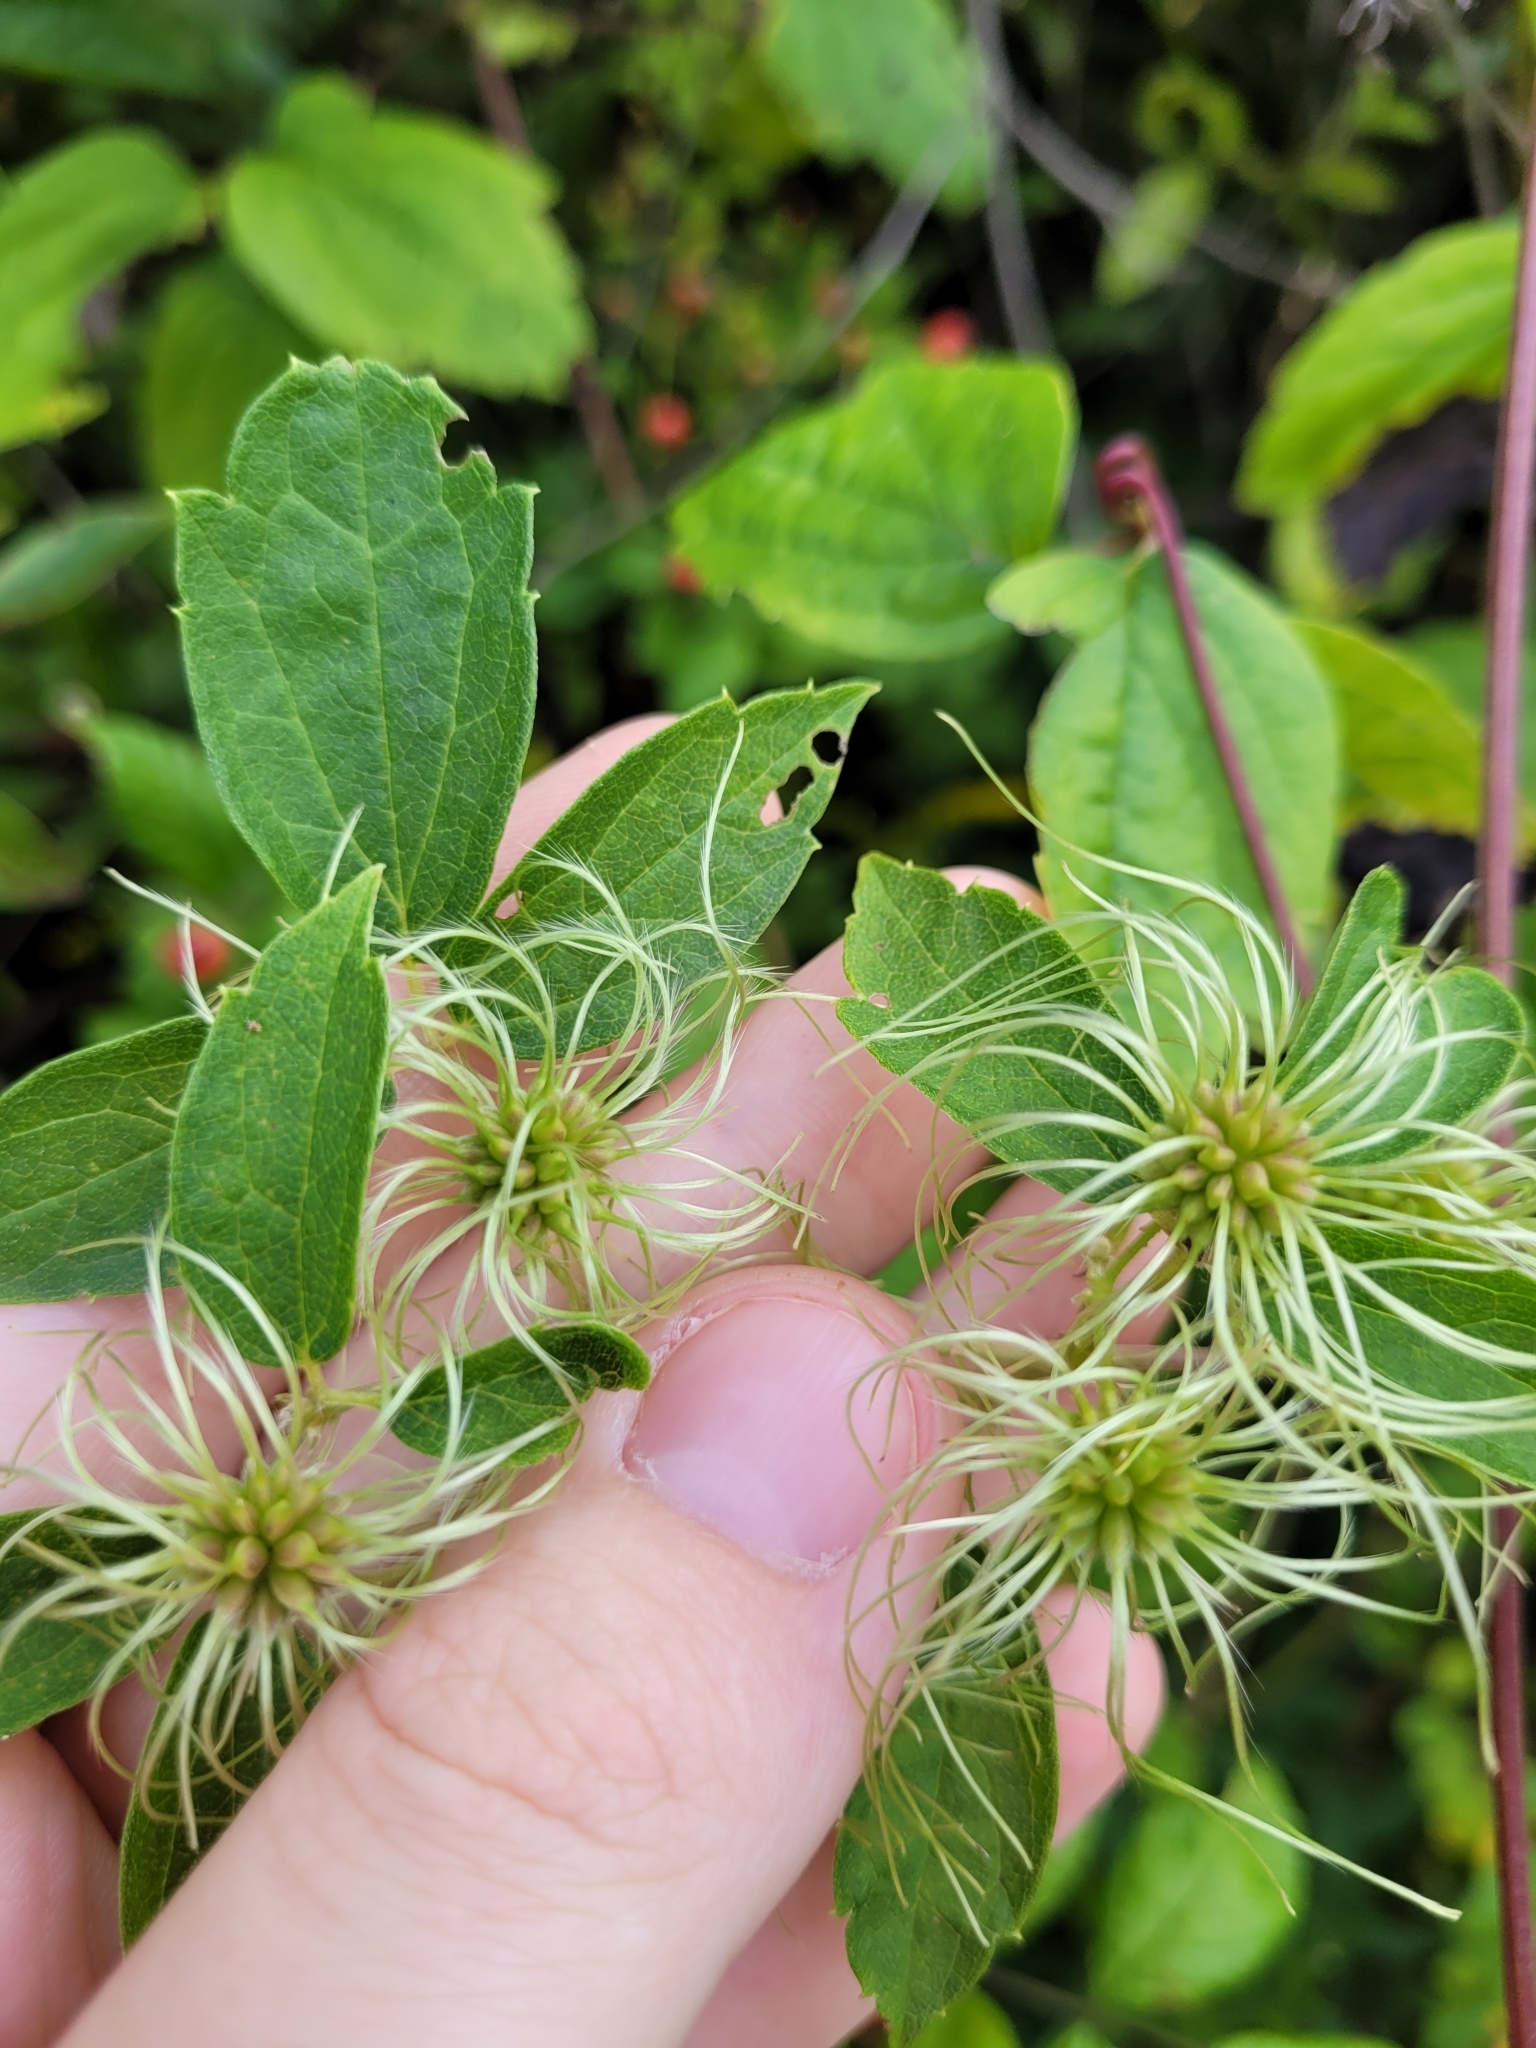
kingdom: Plantae
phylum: Tracheophyta
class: Magnoliopsida
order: Ranunculales
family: Ranunculaceae
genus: Clematis
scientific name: Clematis virginiana
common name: Virgin's-bower
